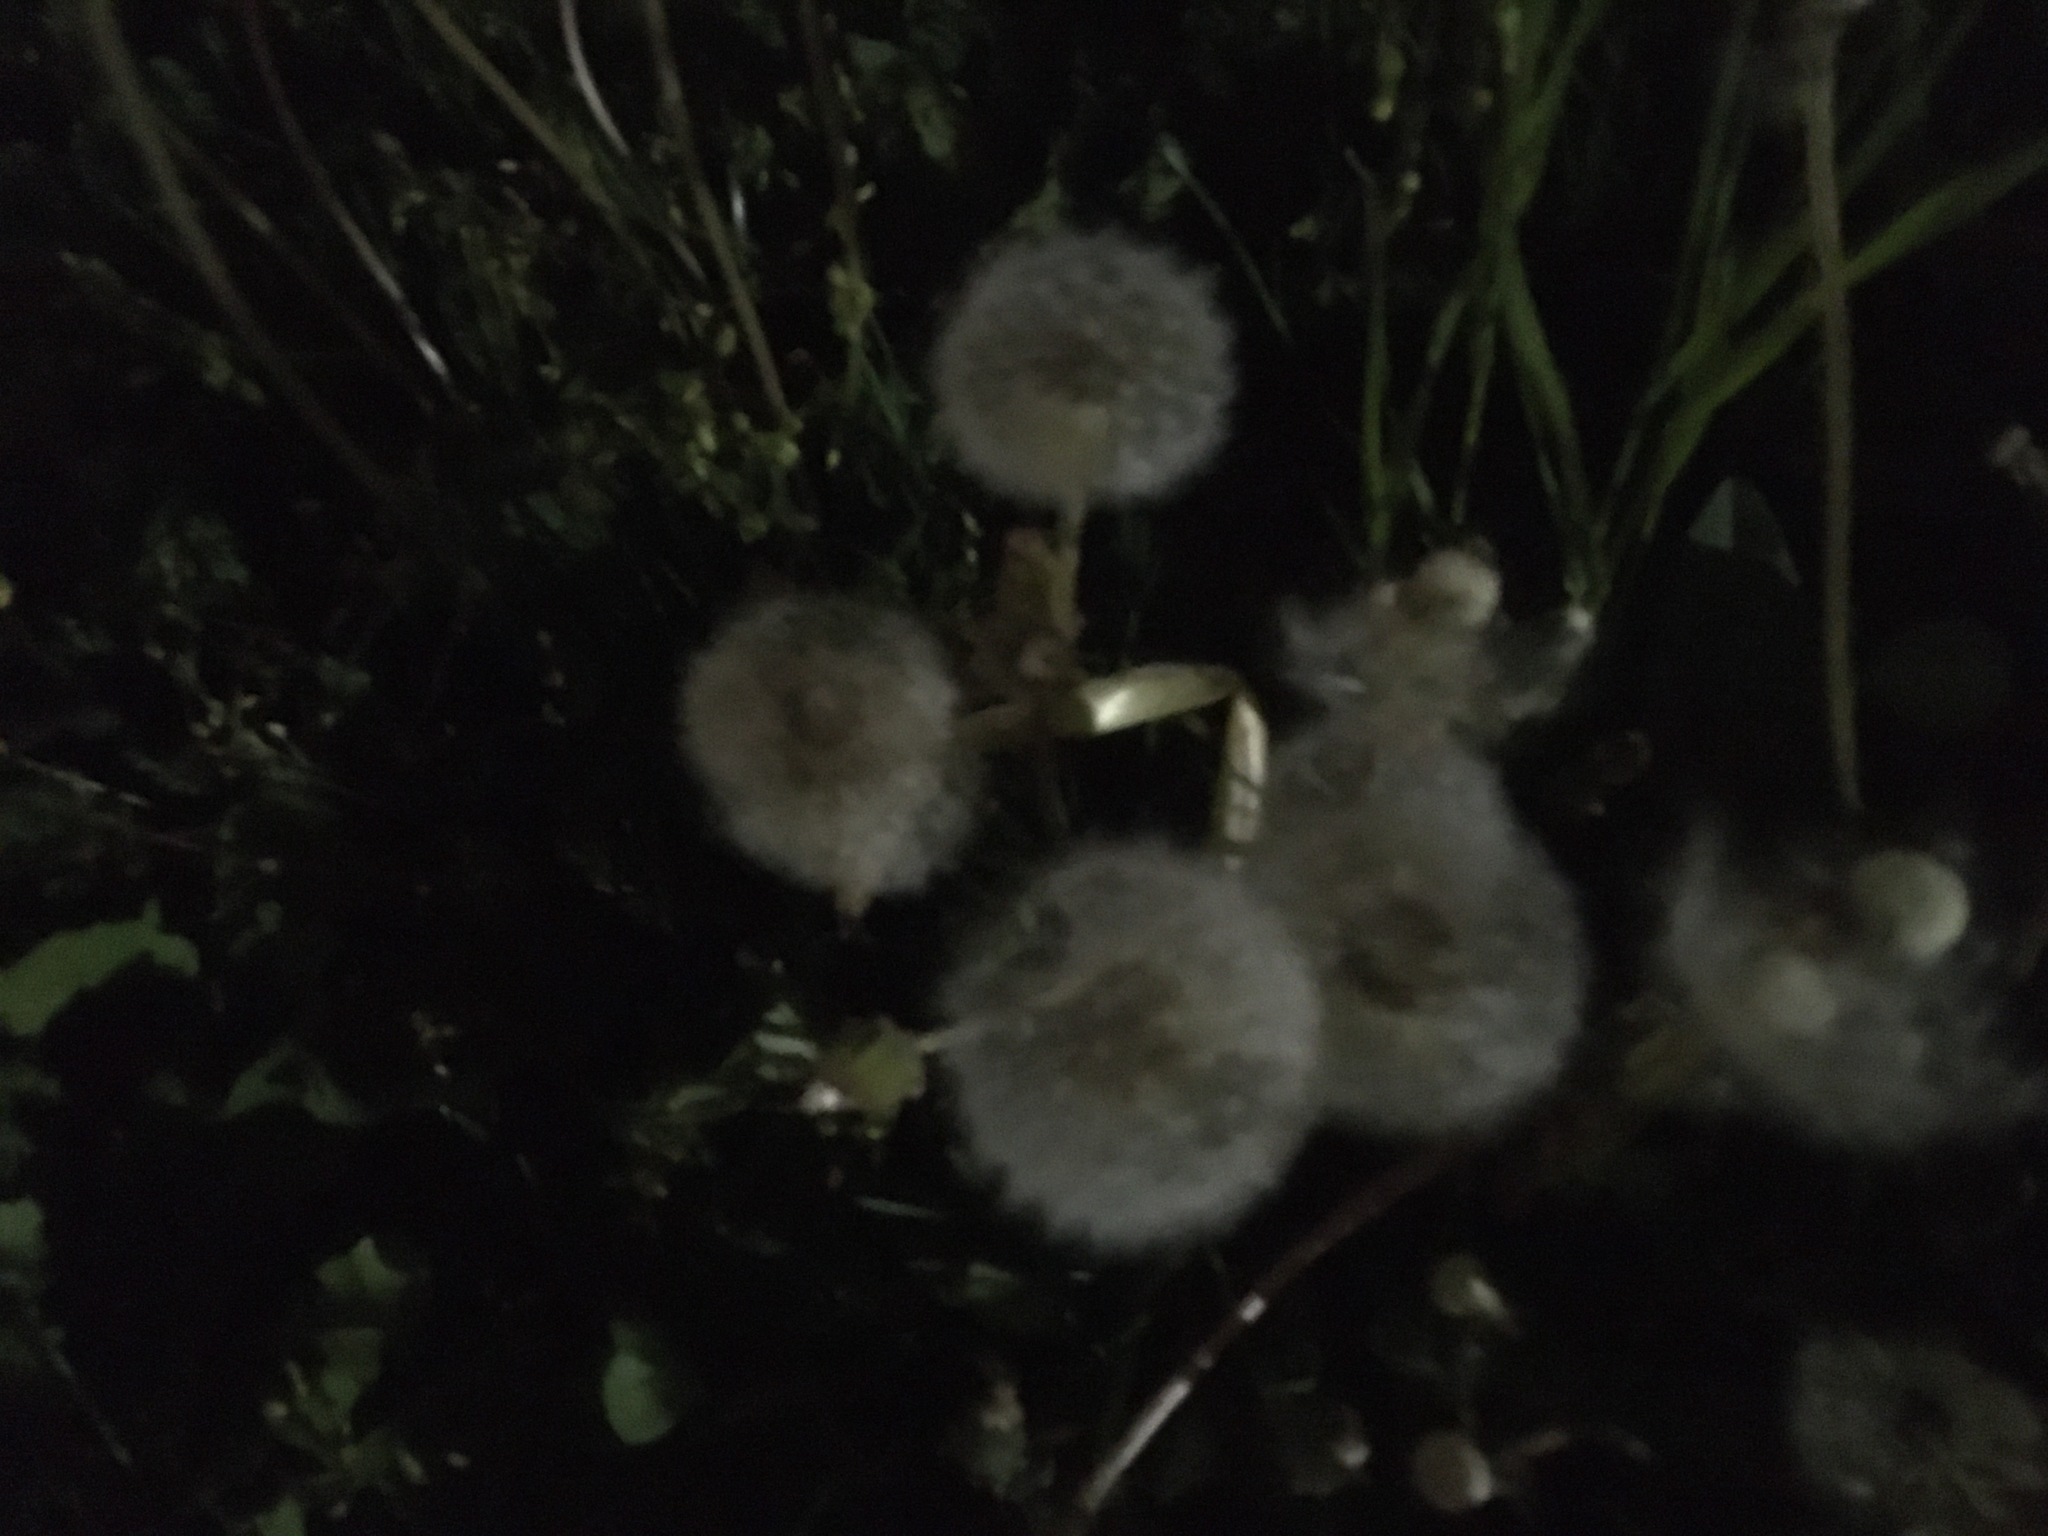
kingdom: Plantae
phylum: Tracheophyta
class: Magnoliopsida
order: Asterales
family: Asteraceae
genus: Taraxacum
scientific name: Taraxacum officinale
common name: Common dandelion
